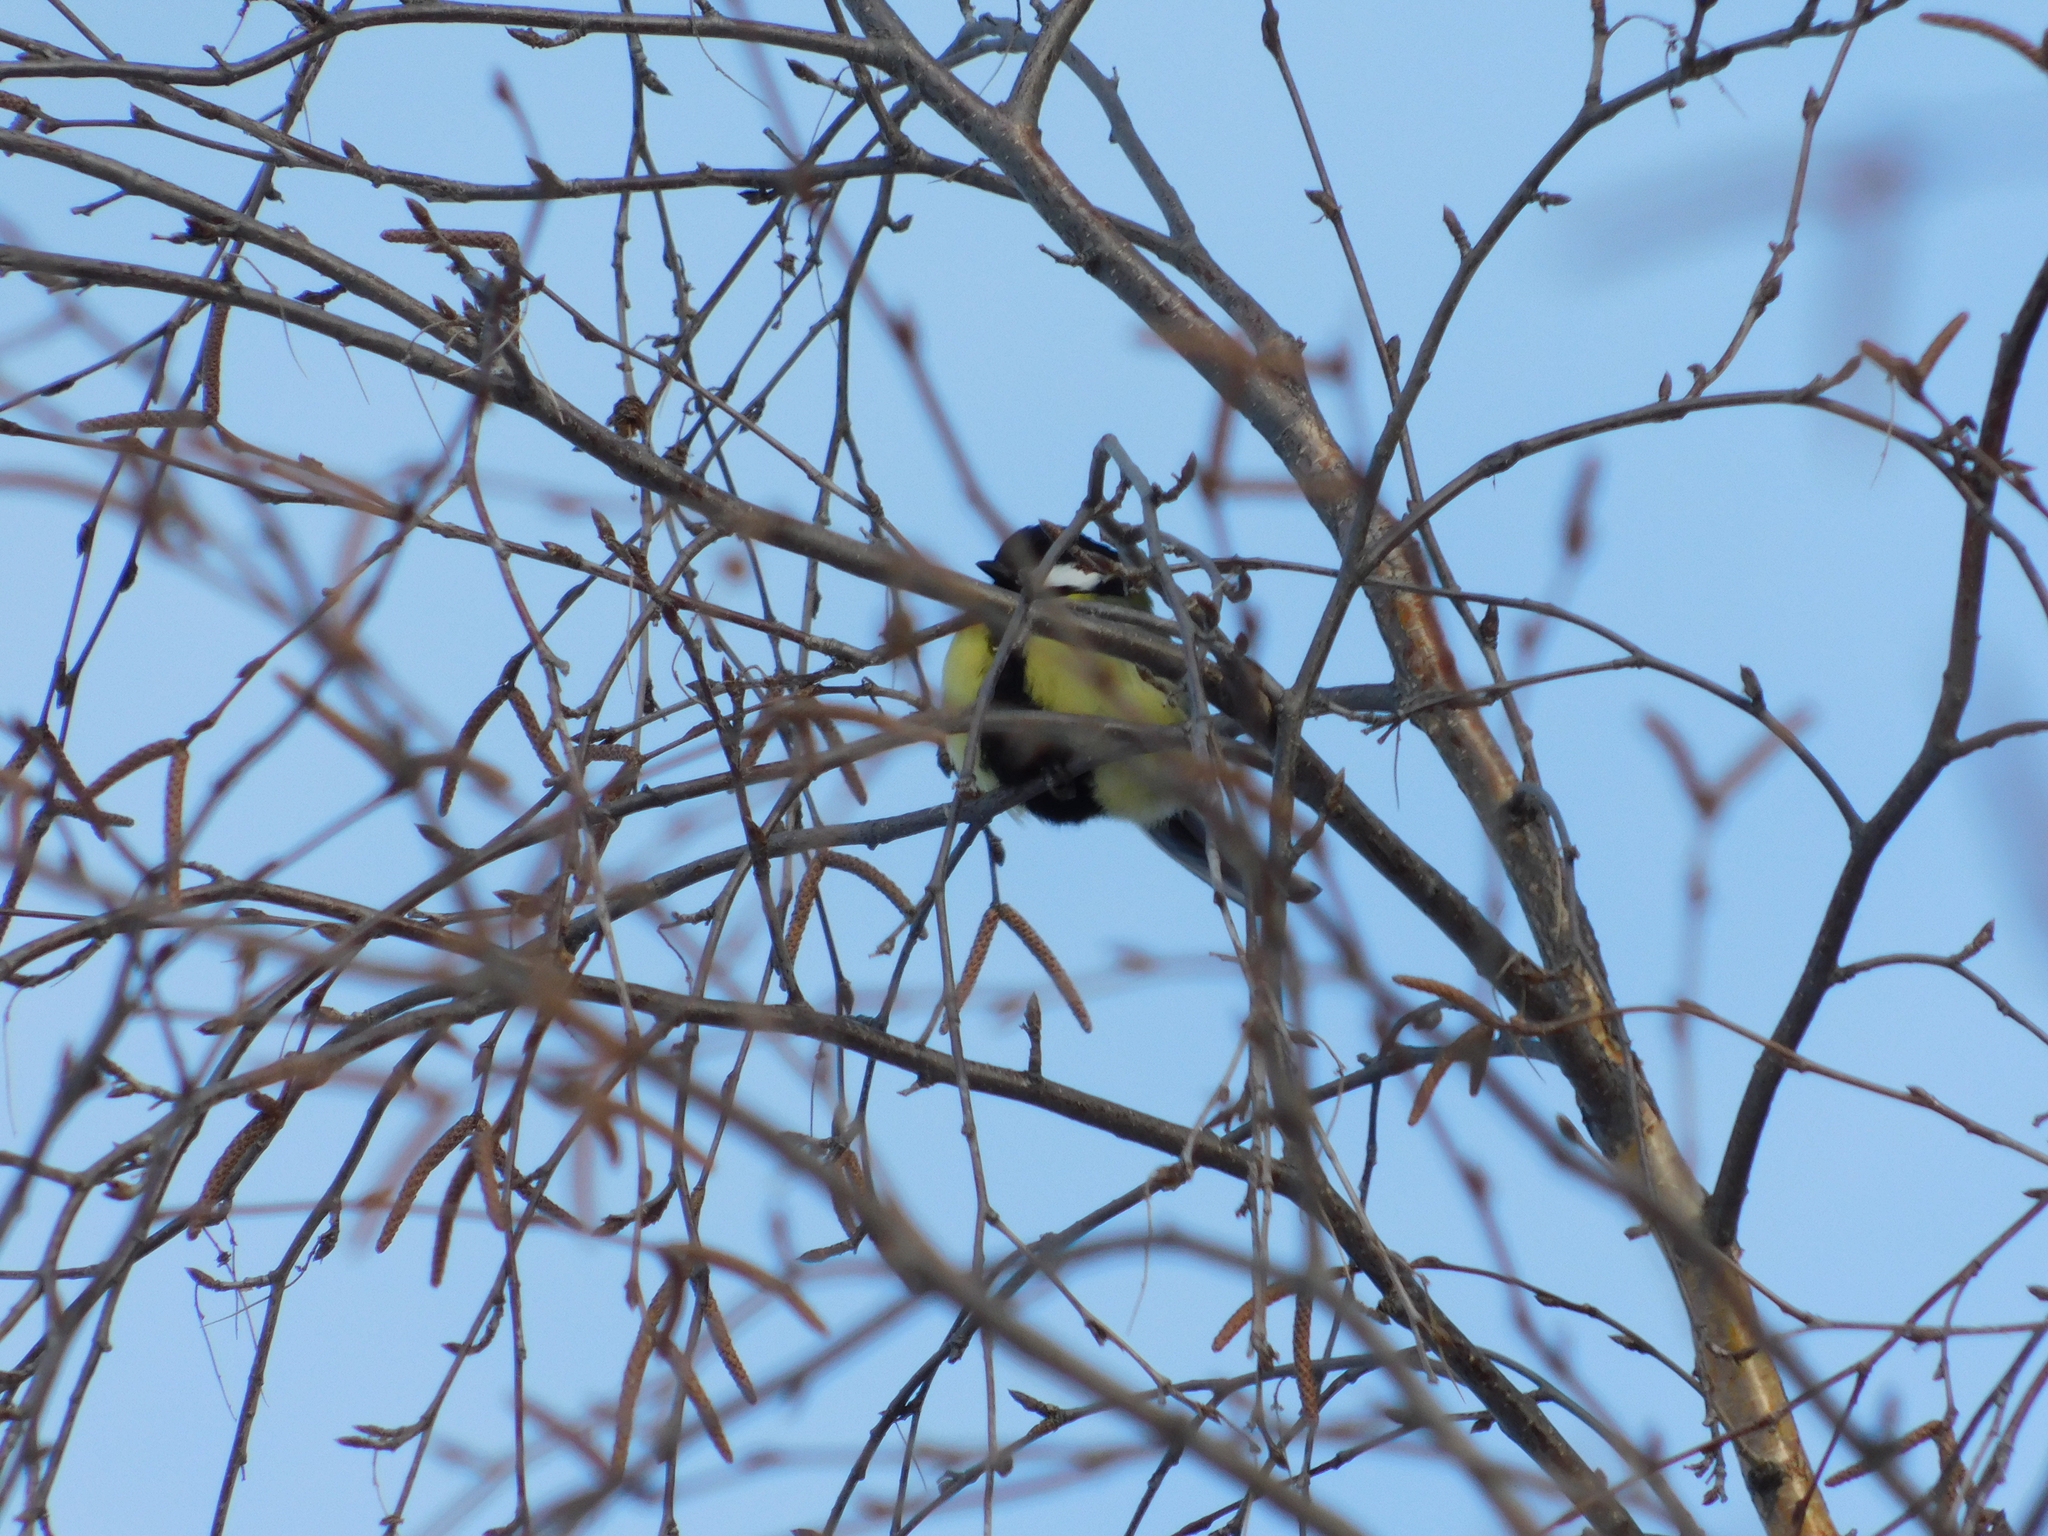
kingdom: Animalia
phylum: Chordata
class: Aves
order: Passeriformes
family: Paridae
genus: Parus
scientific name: Parus major
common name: Great tit
